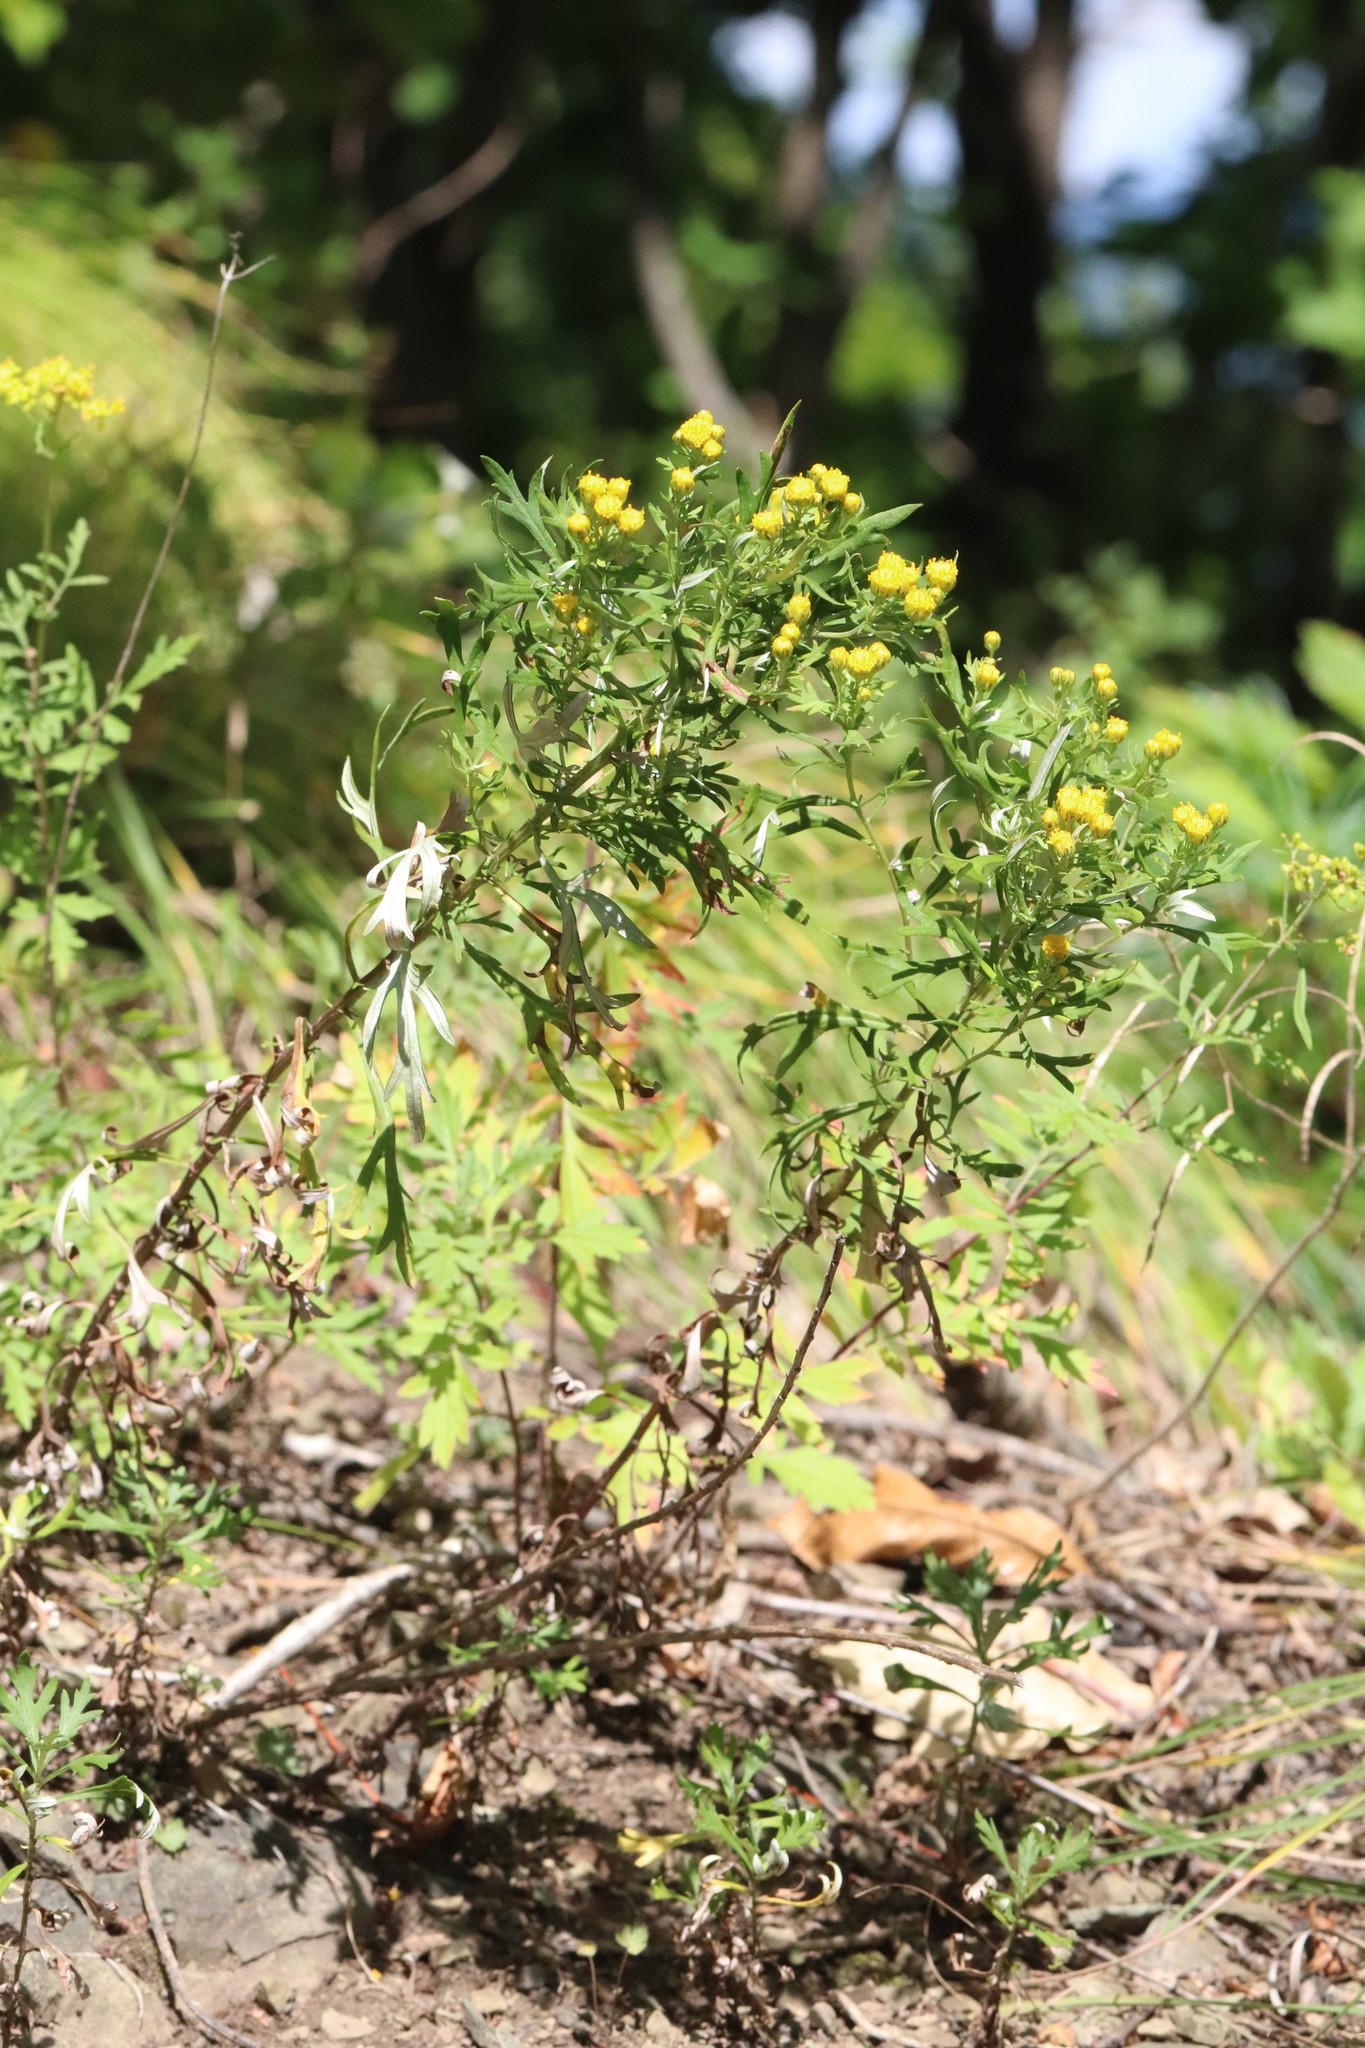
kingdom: Plantae
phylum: Tracheophyta
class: Magnoliopsida
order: Asterales
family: Asteraceae
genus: Ajania
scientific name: Ajania pallasiana
